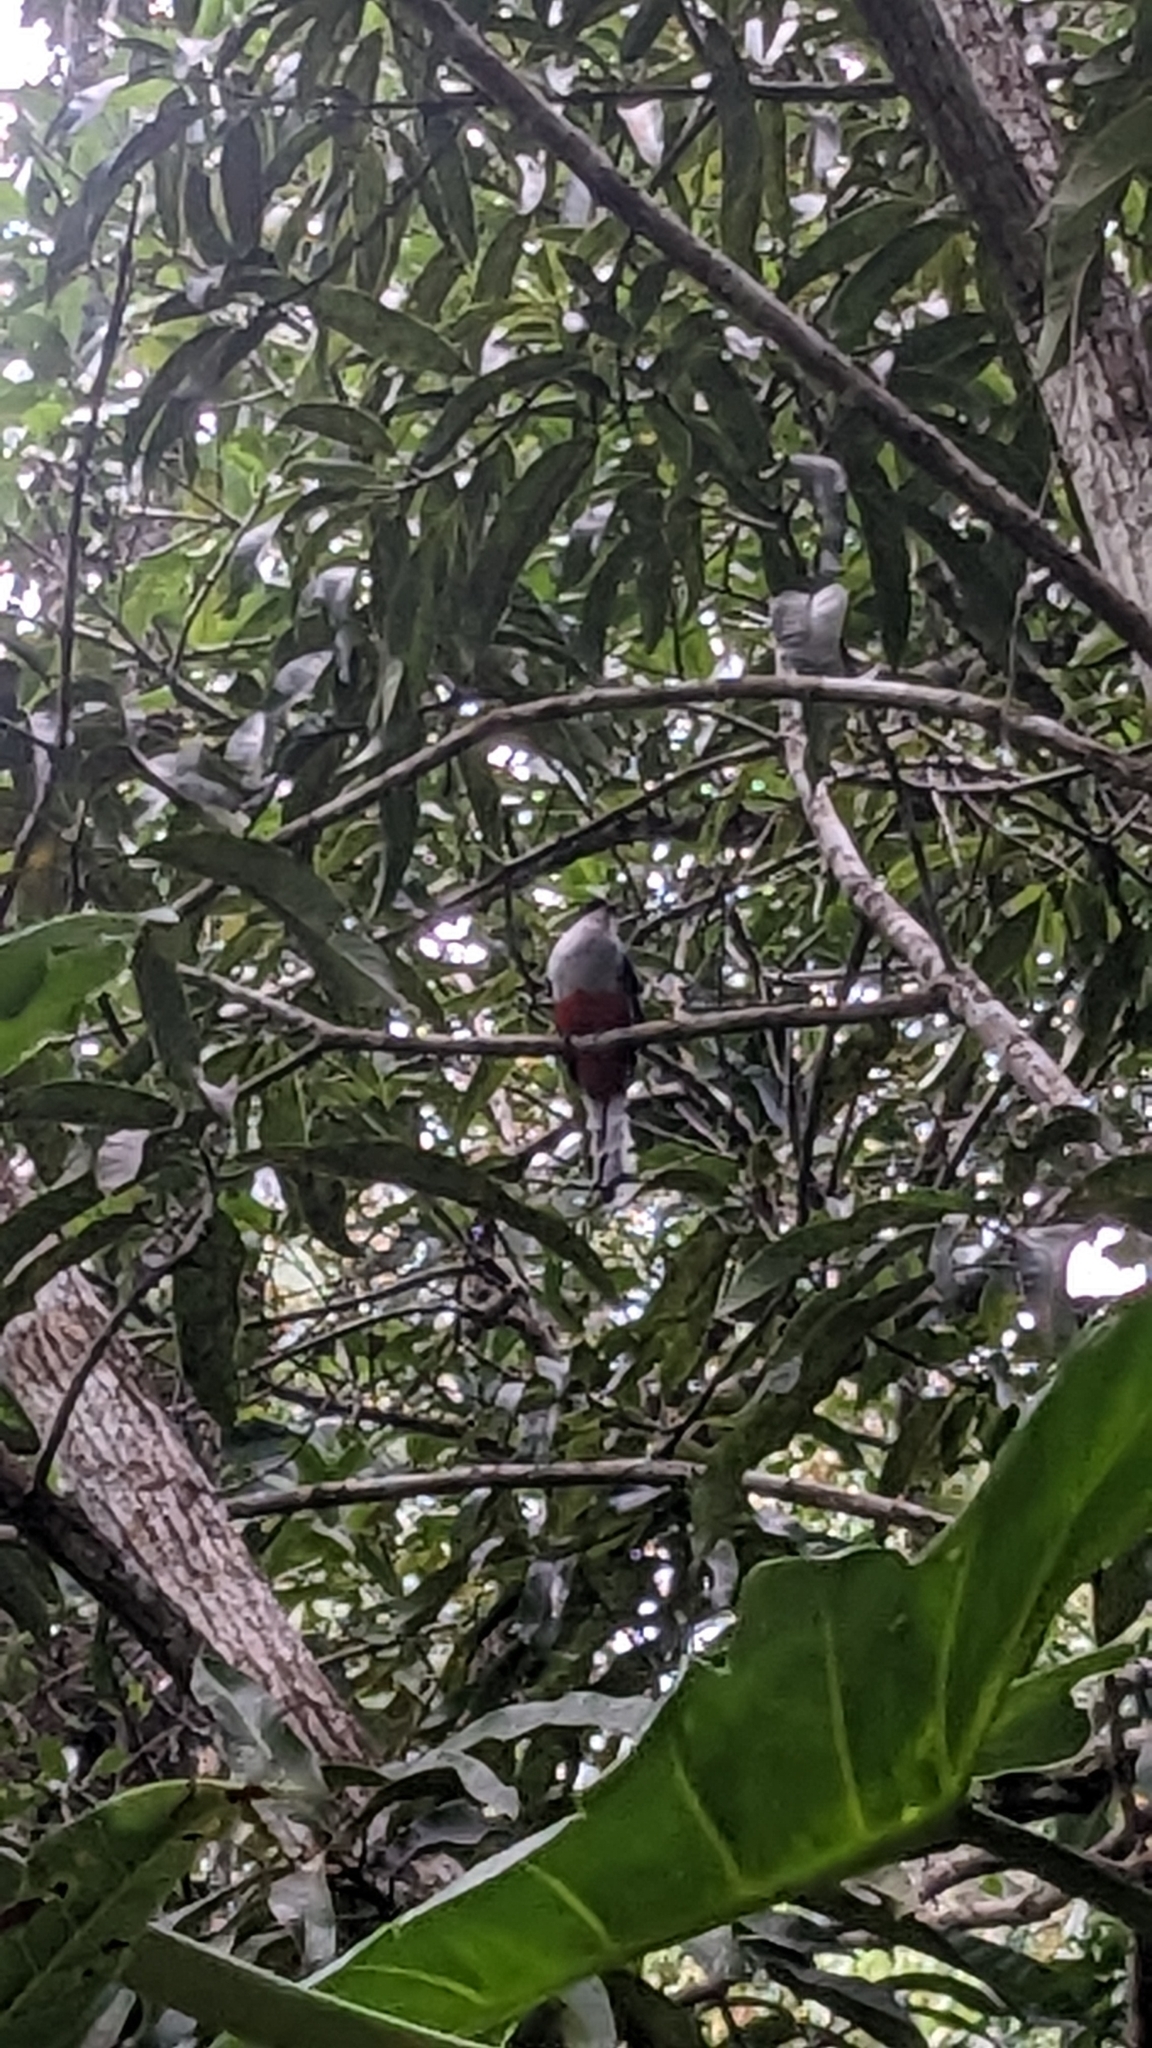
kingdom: Animalia
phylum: Chordata
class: Aves
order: Trogoniformes
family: Trogonidae
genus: Priotelus
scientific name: Priotelus temnurus
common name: Cuban trogon
